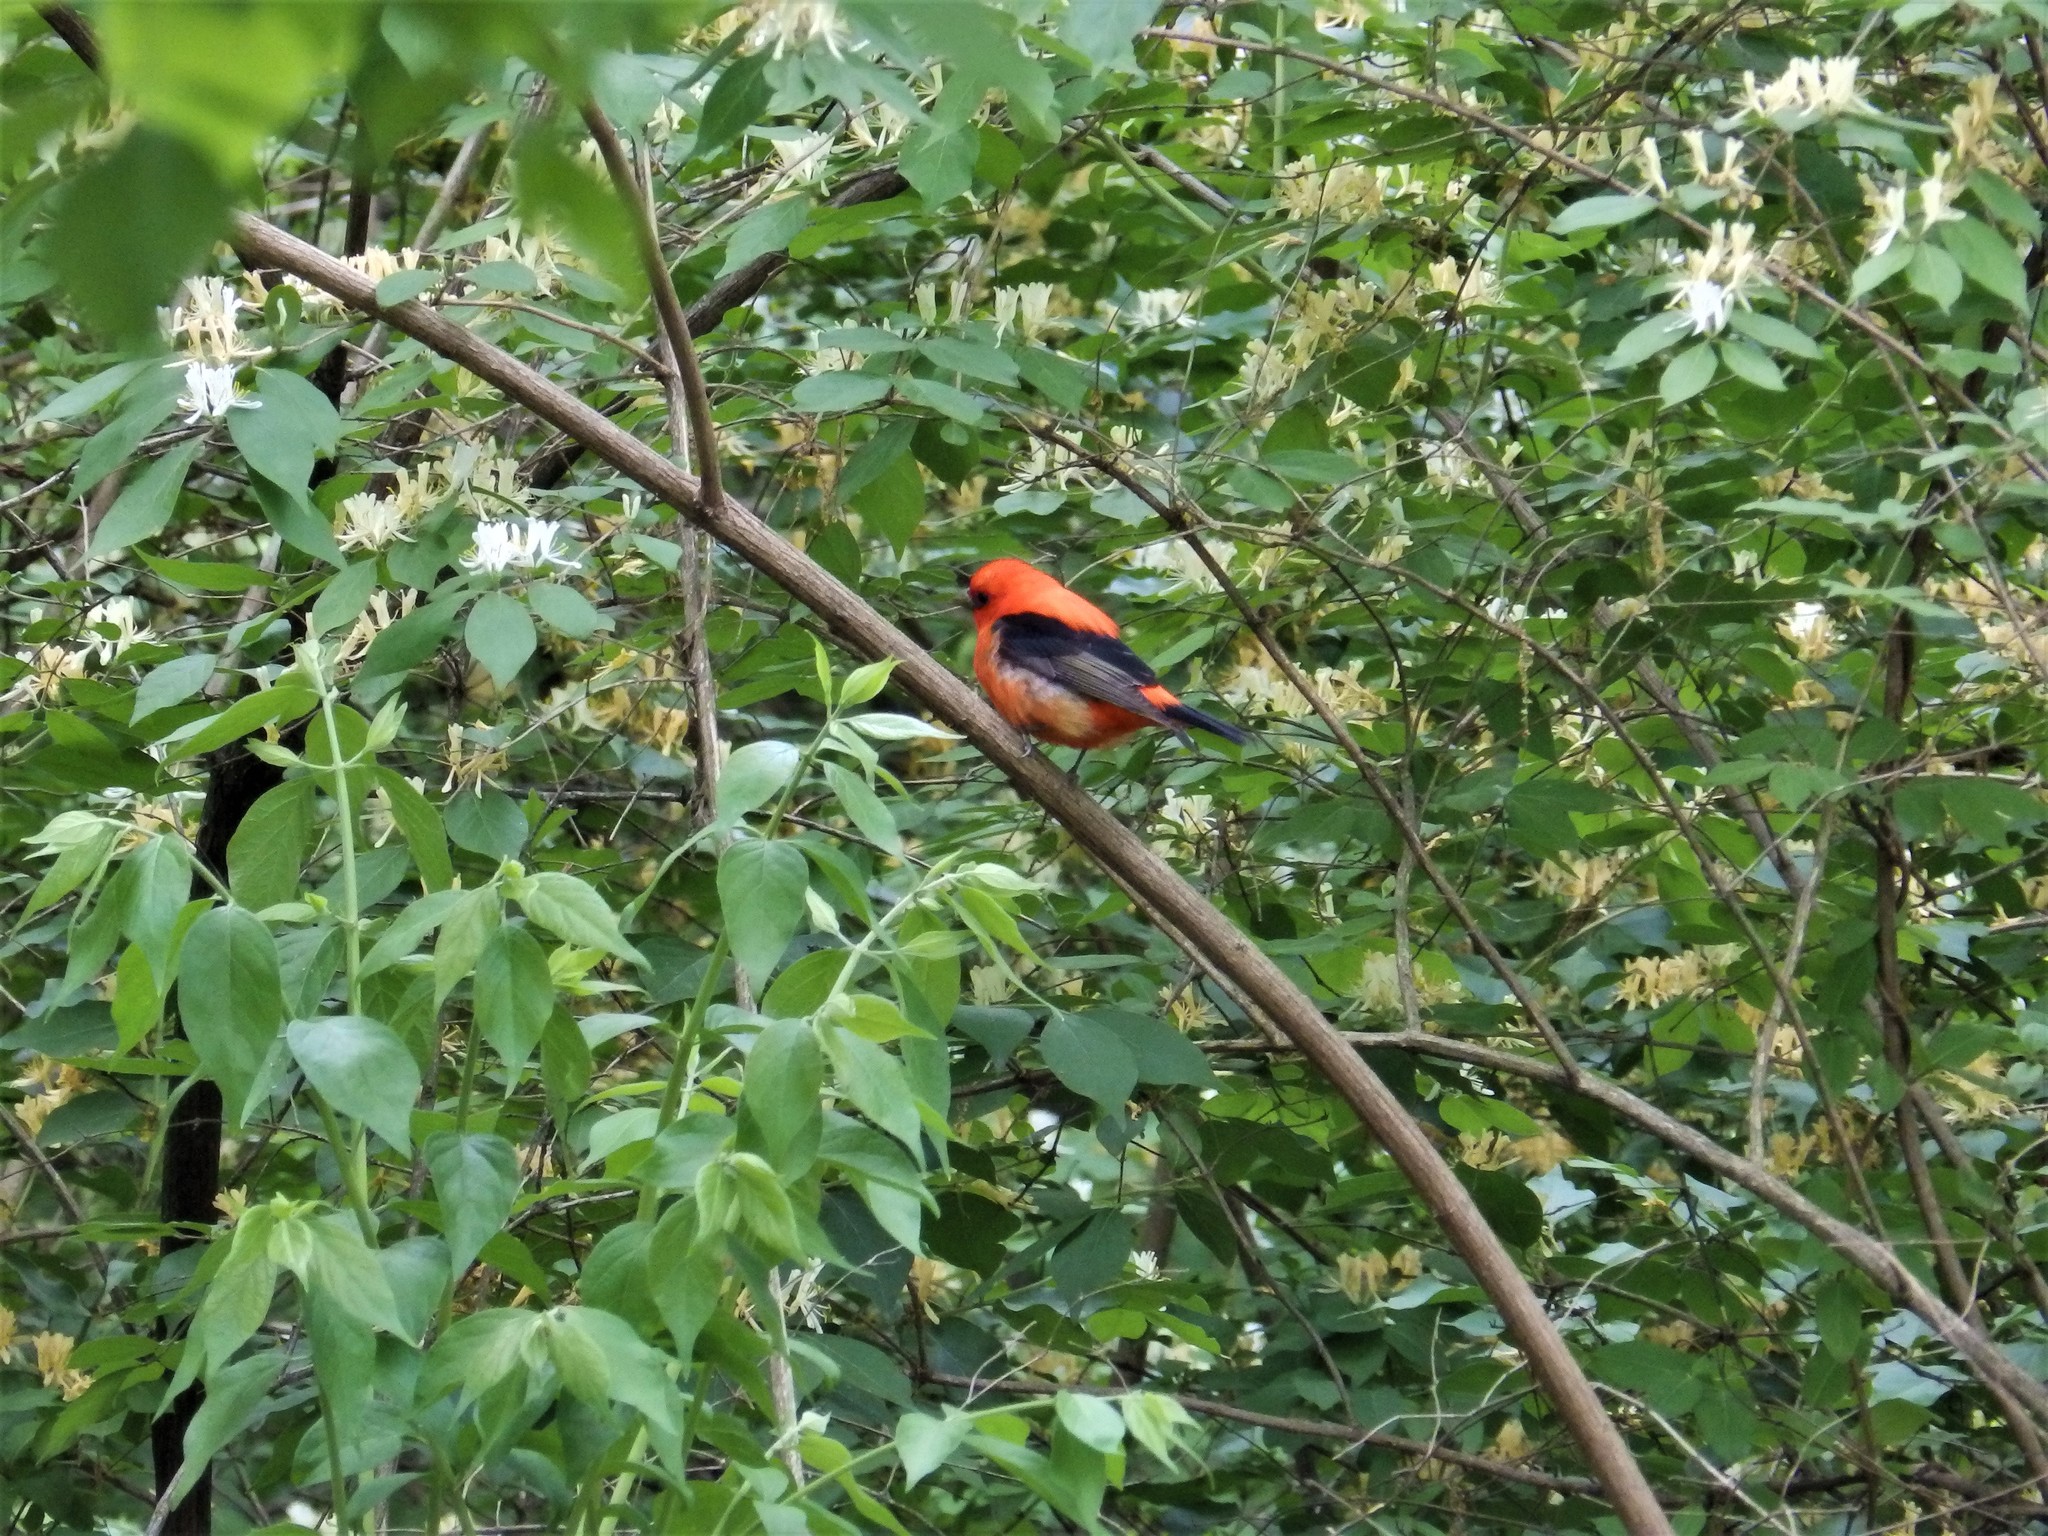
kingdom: Animalia
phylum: Chordata
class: Aves
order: Passeriformes
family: Cardinalidae
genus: Piranga
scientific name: Piranga olivacea
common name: Scarlet tanager
